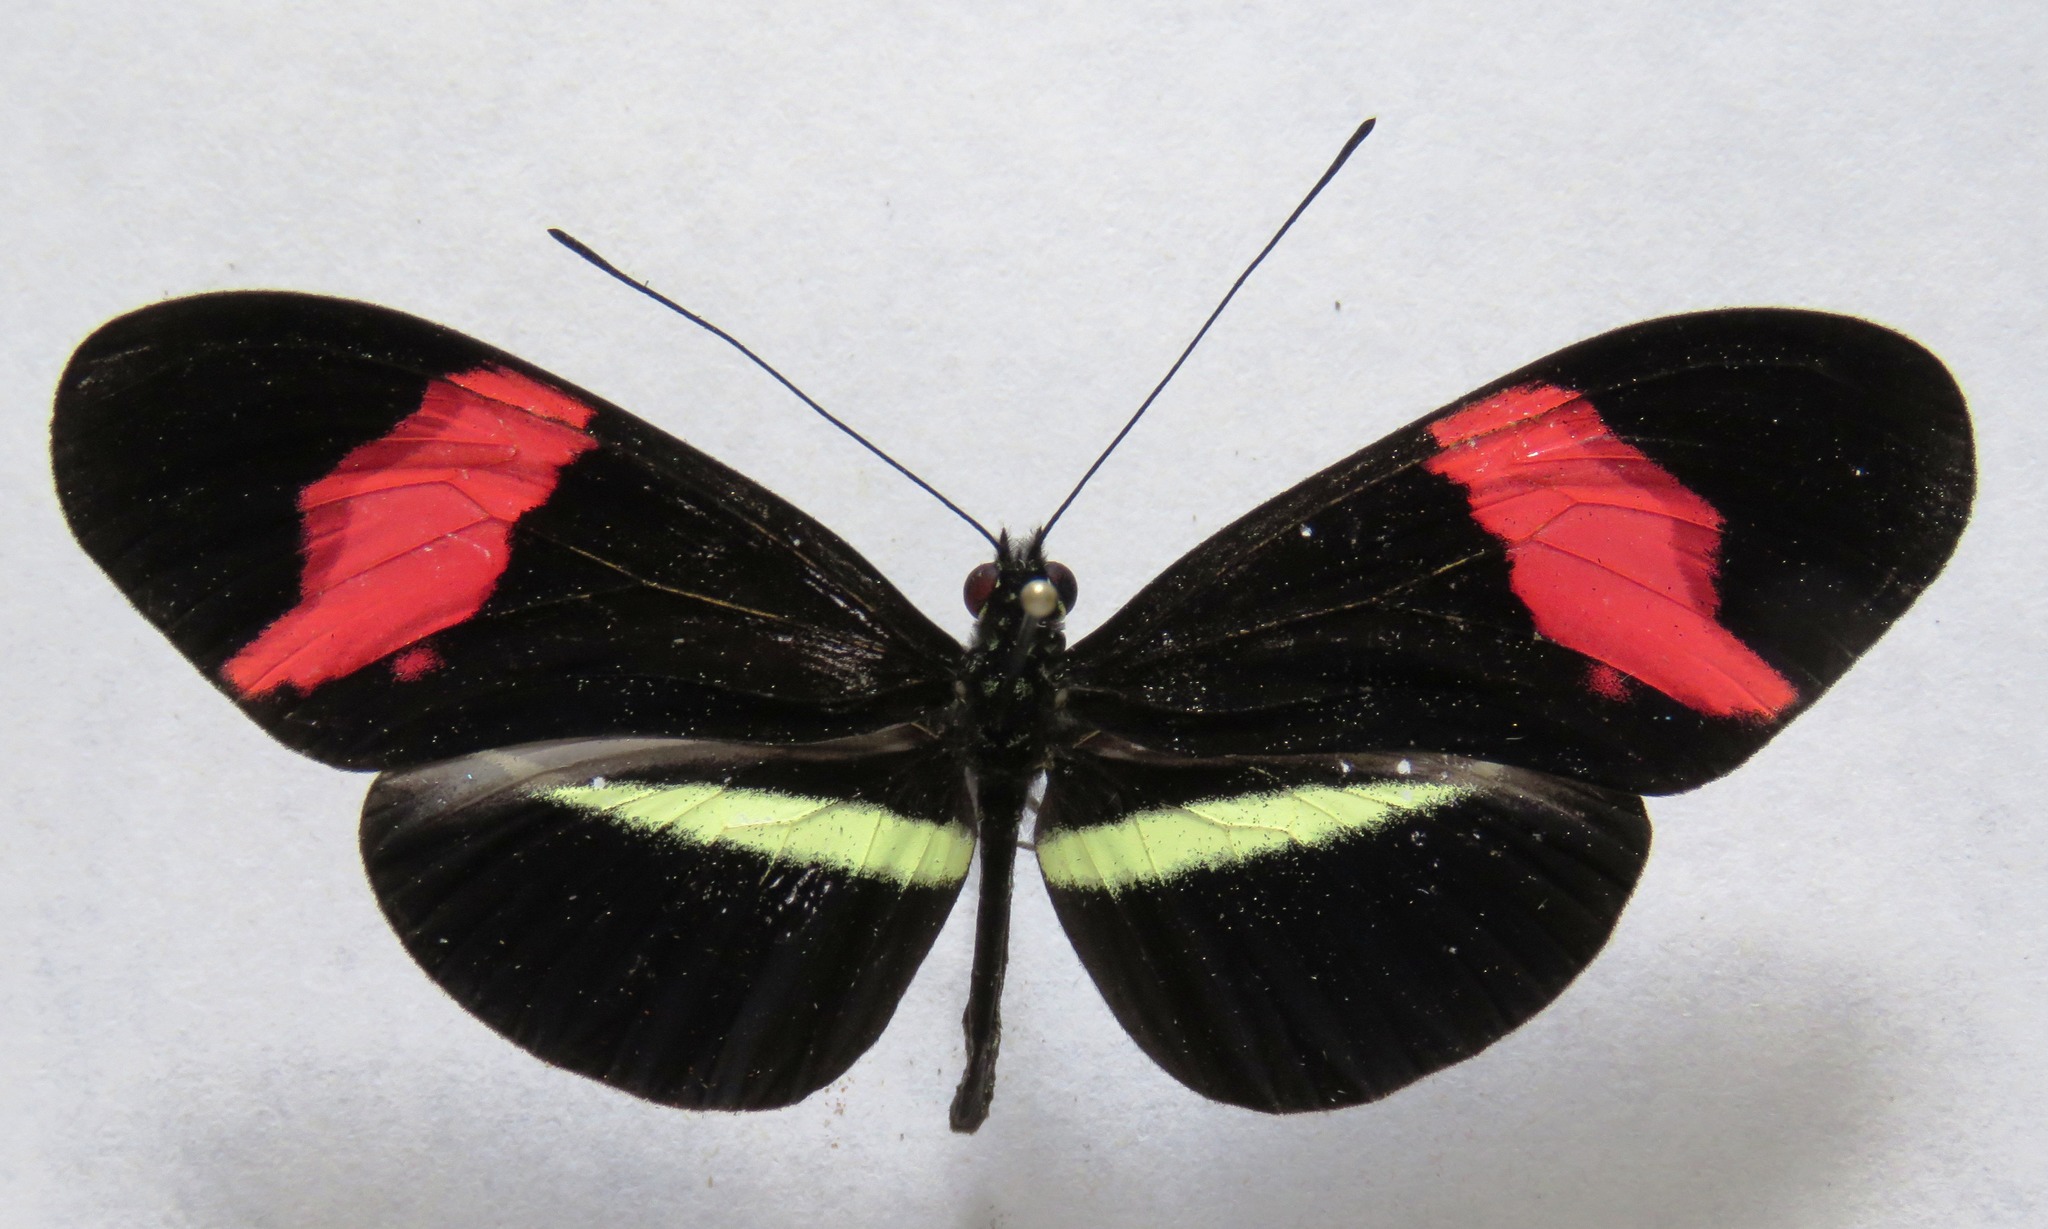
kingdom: Animalia
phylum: Arthropoda
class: Insecta
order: Lepidoptera
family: Nymphalidae
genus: Tirumala
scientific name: Tirumala petiverana
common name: Blue monarch
